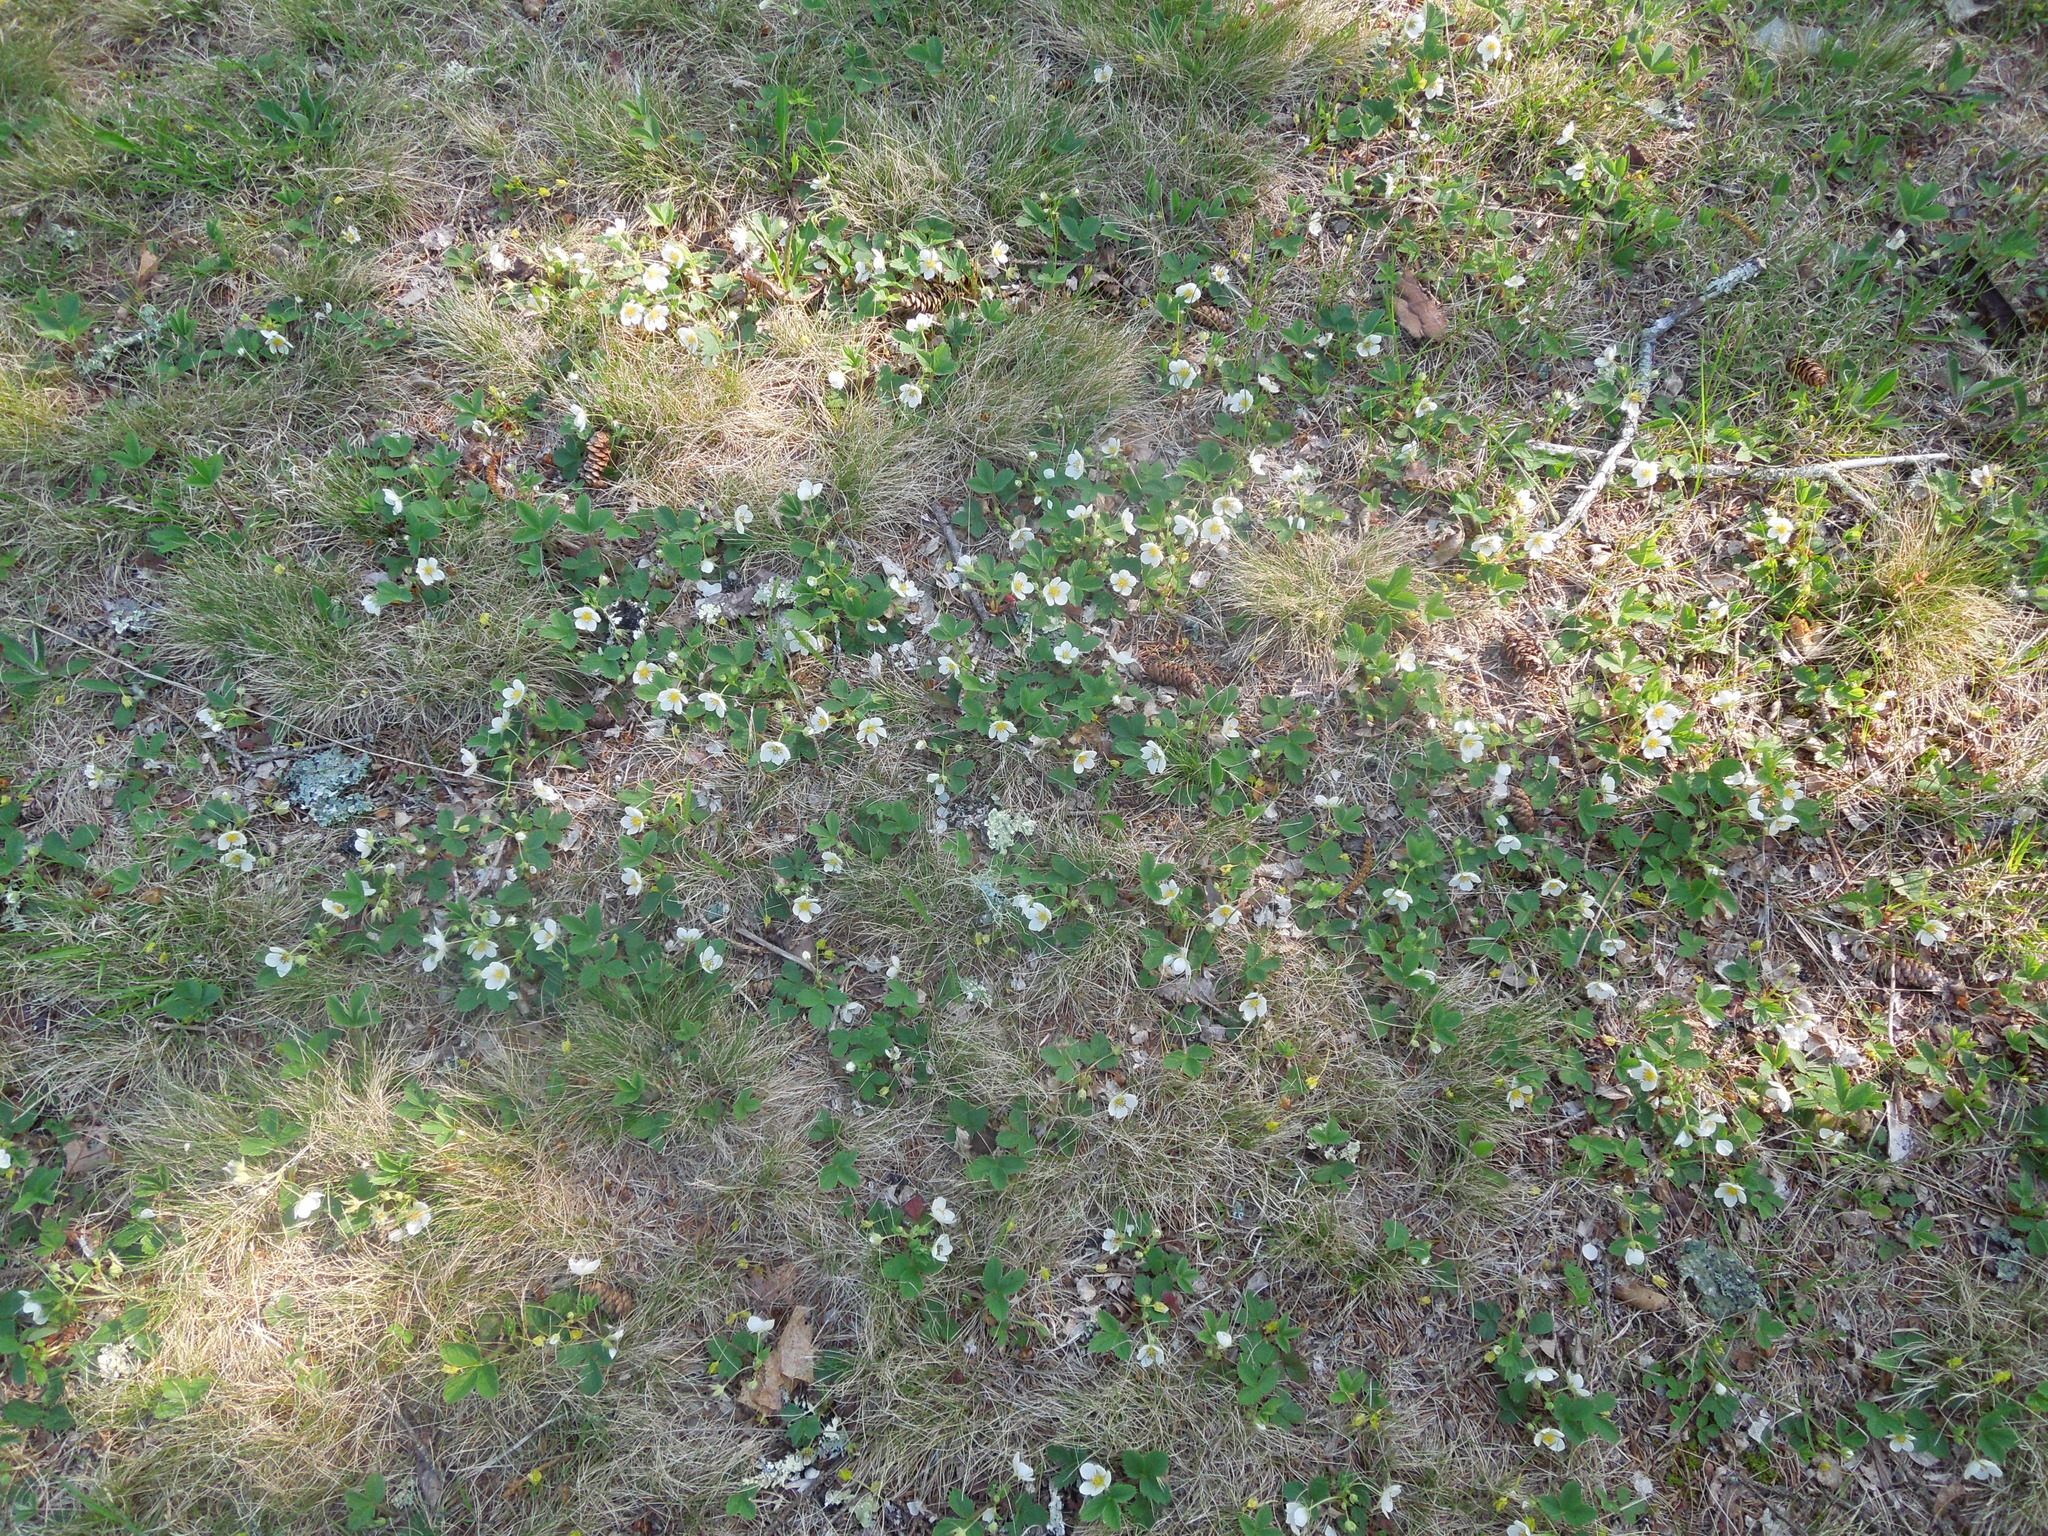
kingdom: Plantae
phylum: Tracheophyta
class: Magnoliopsida
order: Rosales
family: Rosaceae
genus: Fragaria
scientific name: Fragaria virginiana
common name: Thickleaved wild strawberry
